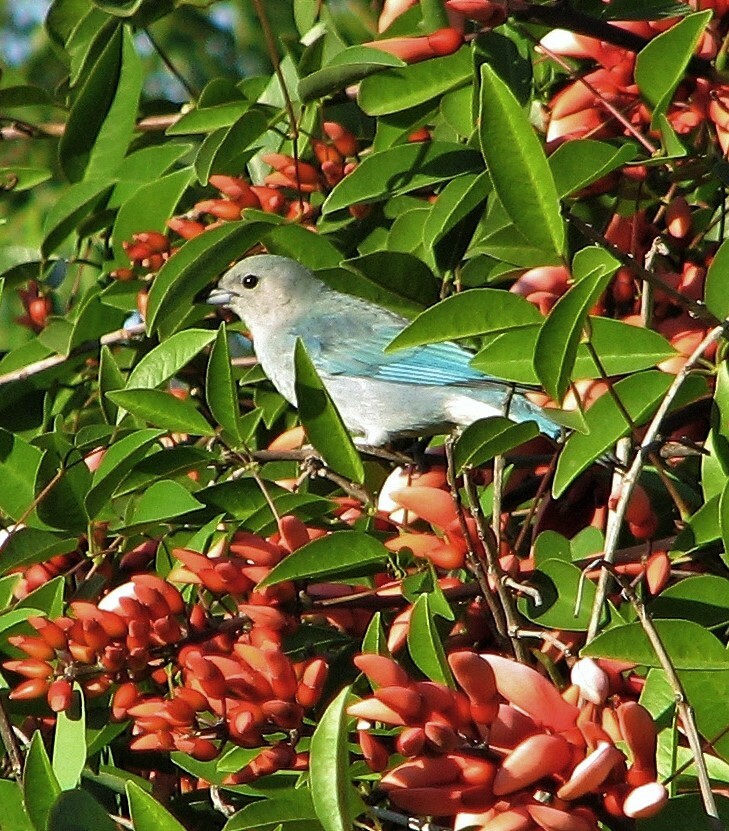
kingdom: Animalia
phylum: Chordata
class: Aves
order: Passeriformes
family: Thraupidae
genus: Thraupis
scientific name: Thraupis sayaca
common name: Sayaca tanager
